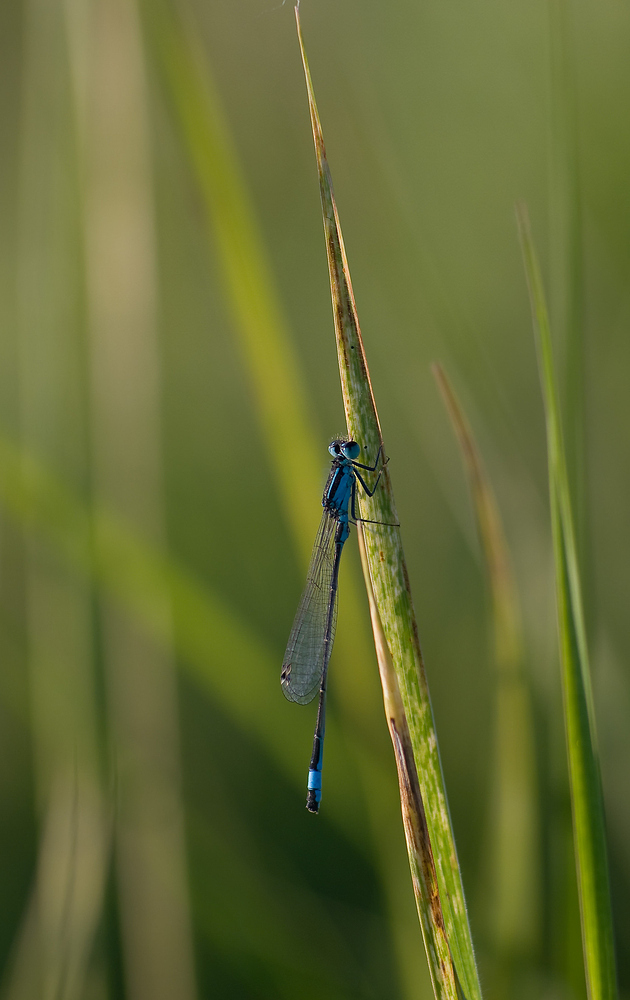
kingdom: Animalia
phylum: Arthropoda
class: Insecta
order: Odonata
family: Coenagrionidae
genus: Ischnura
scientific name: Ischnura elegans
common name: Blue-tailed damselfly
